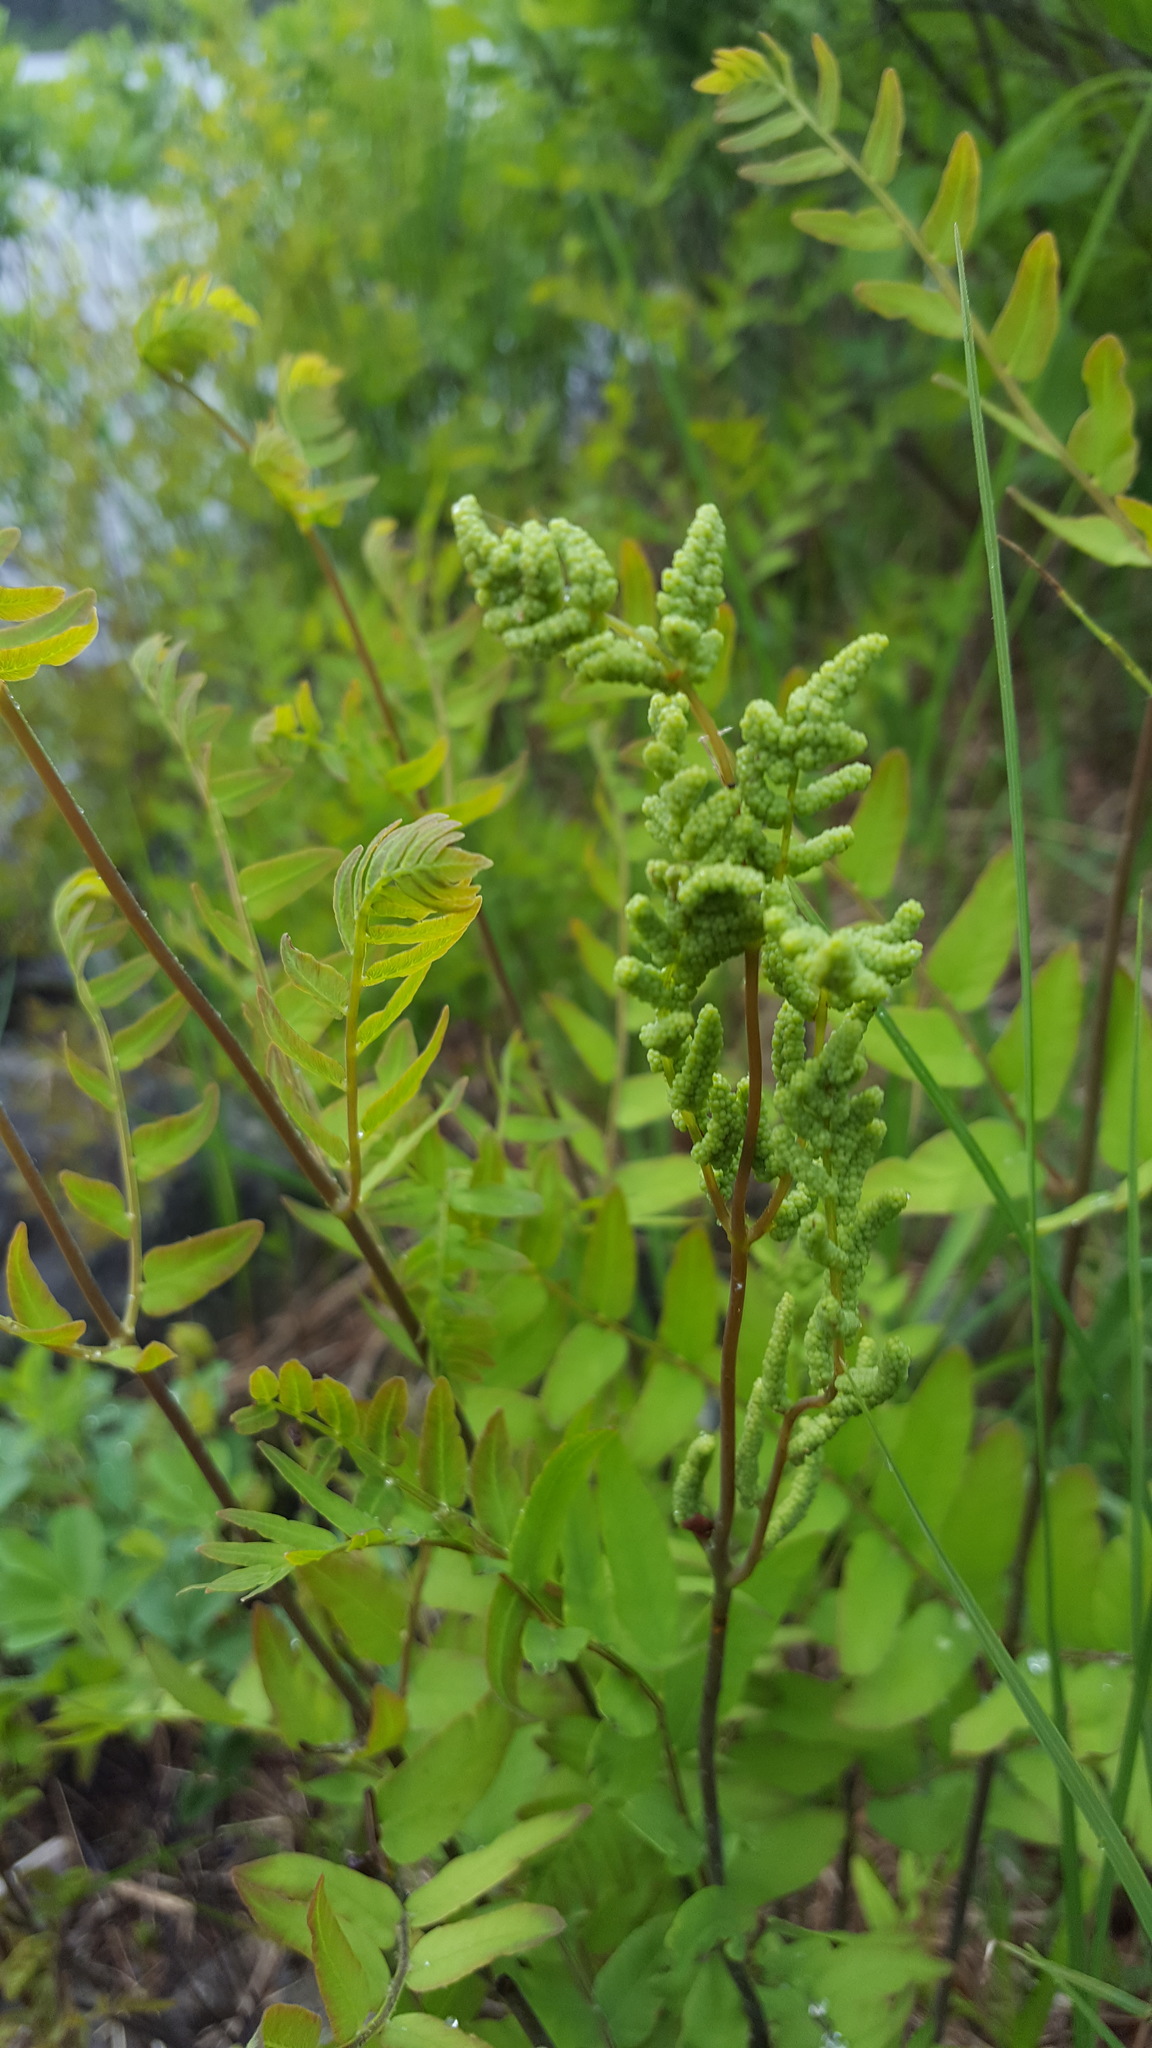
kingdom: Plantae
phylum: Tracheophyta
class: Polypodiopsida
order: Osmundales
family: Osmundaceae
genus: Osmunda
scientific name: Osmunda spectabilis
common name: American royal fern
